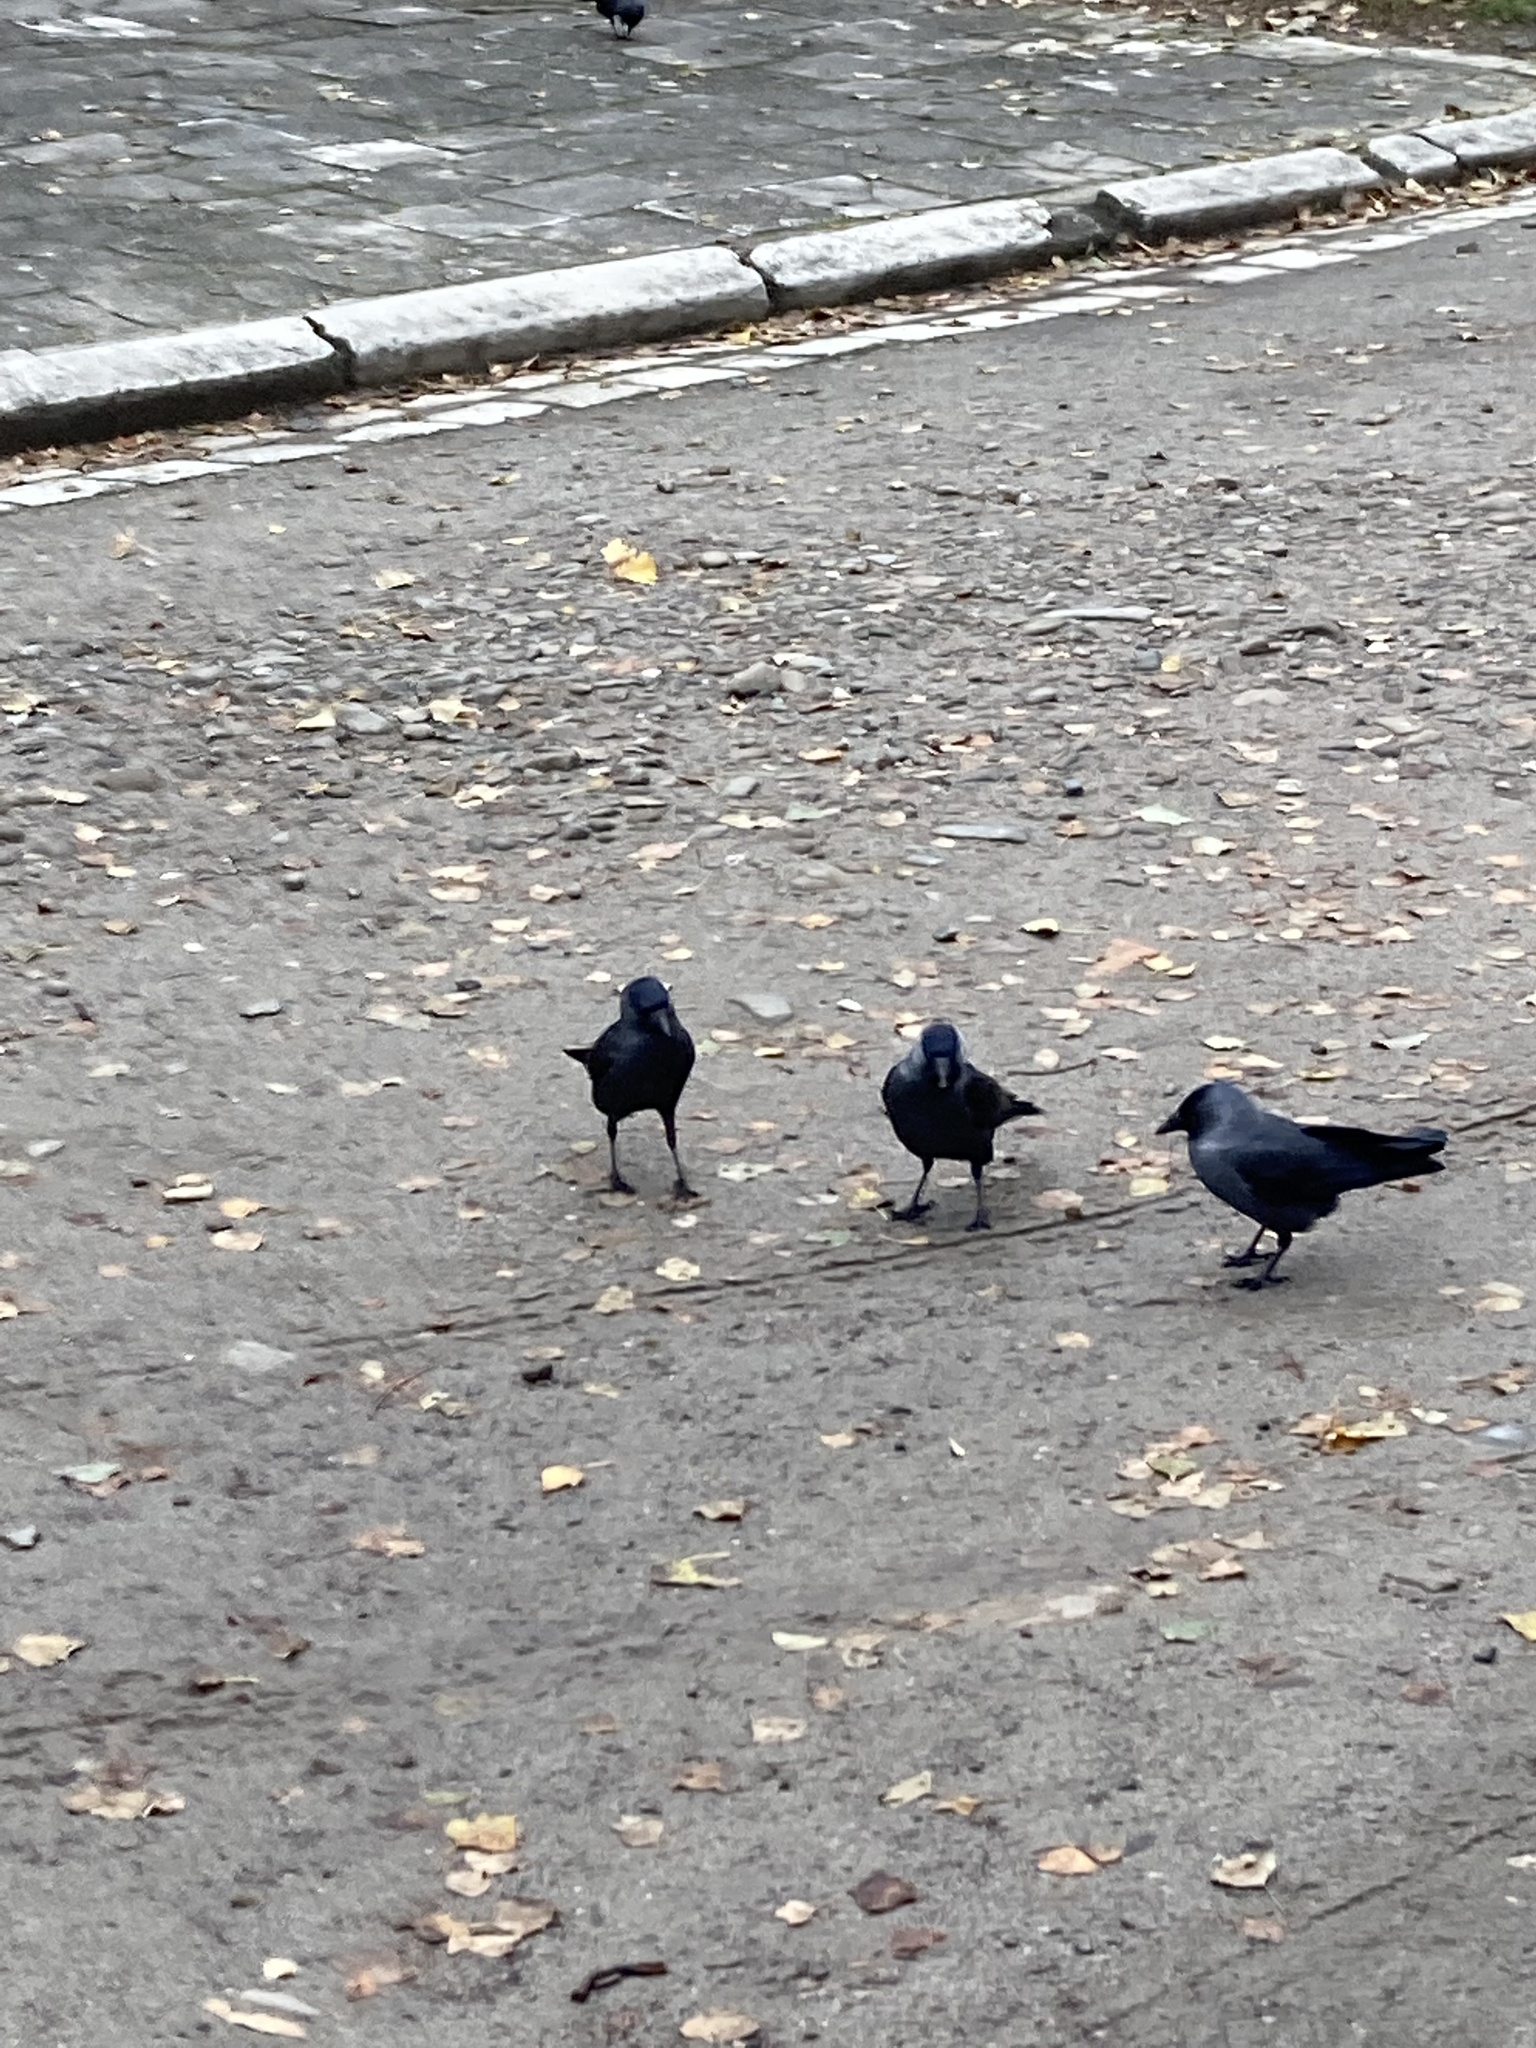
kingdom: Animalia
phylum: Chordata
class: Aves
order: Passeriformes
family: Corvidae
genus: Coloeus
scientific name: Coloeus monedula
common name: Western jackdaw
